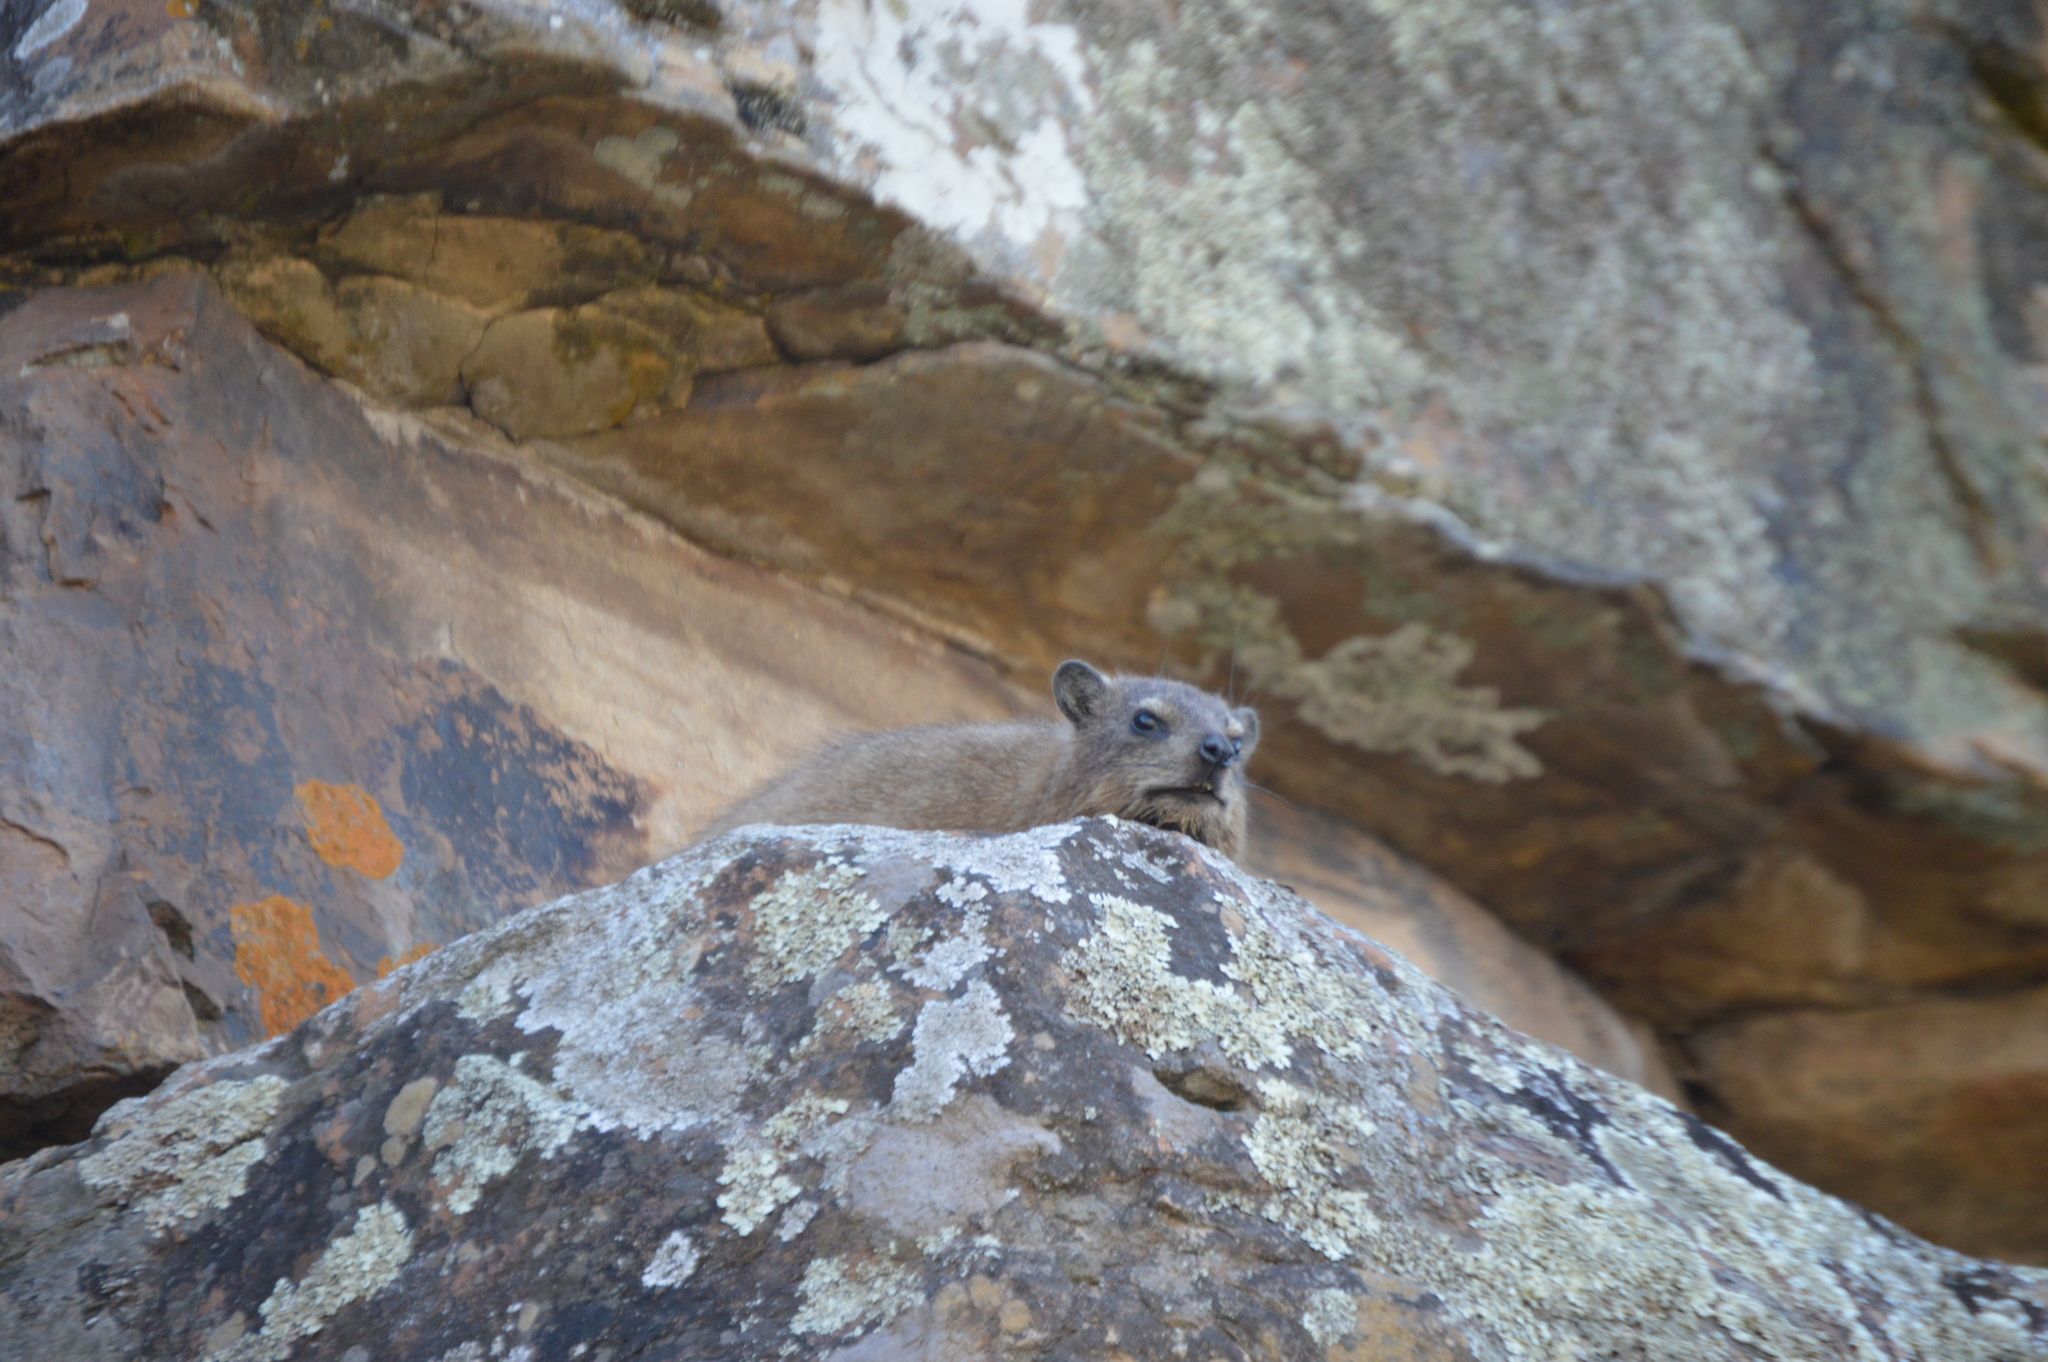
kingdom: Animalia
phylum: Chordata
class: Mammalia
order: Hyracoidea
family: Procaviidae
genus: Procavia
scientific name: Procavia capensis
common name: Rock hyrax
